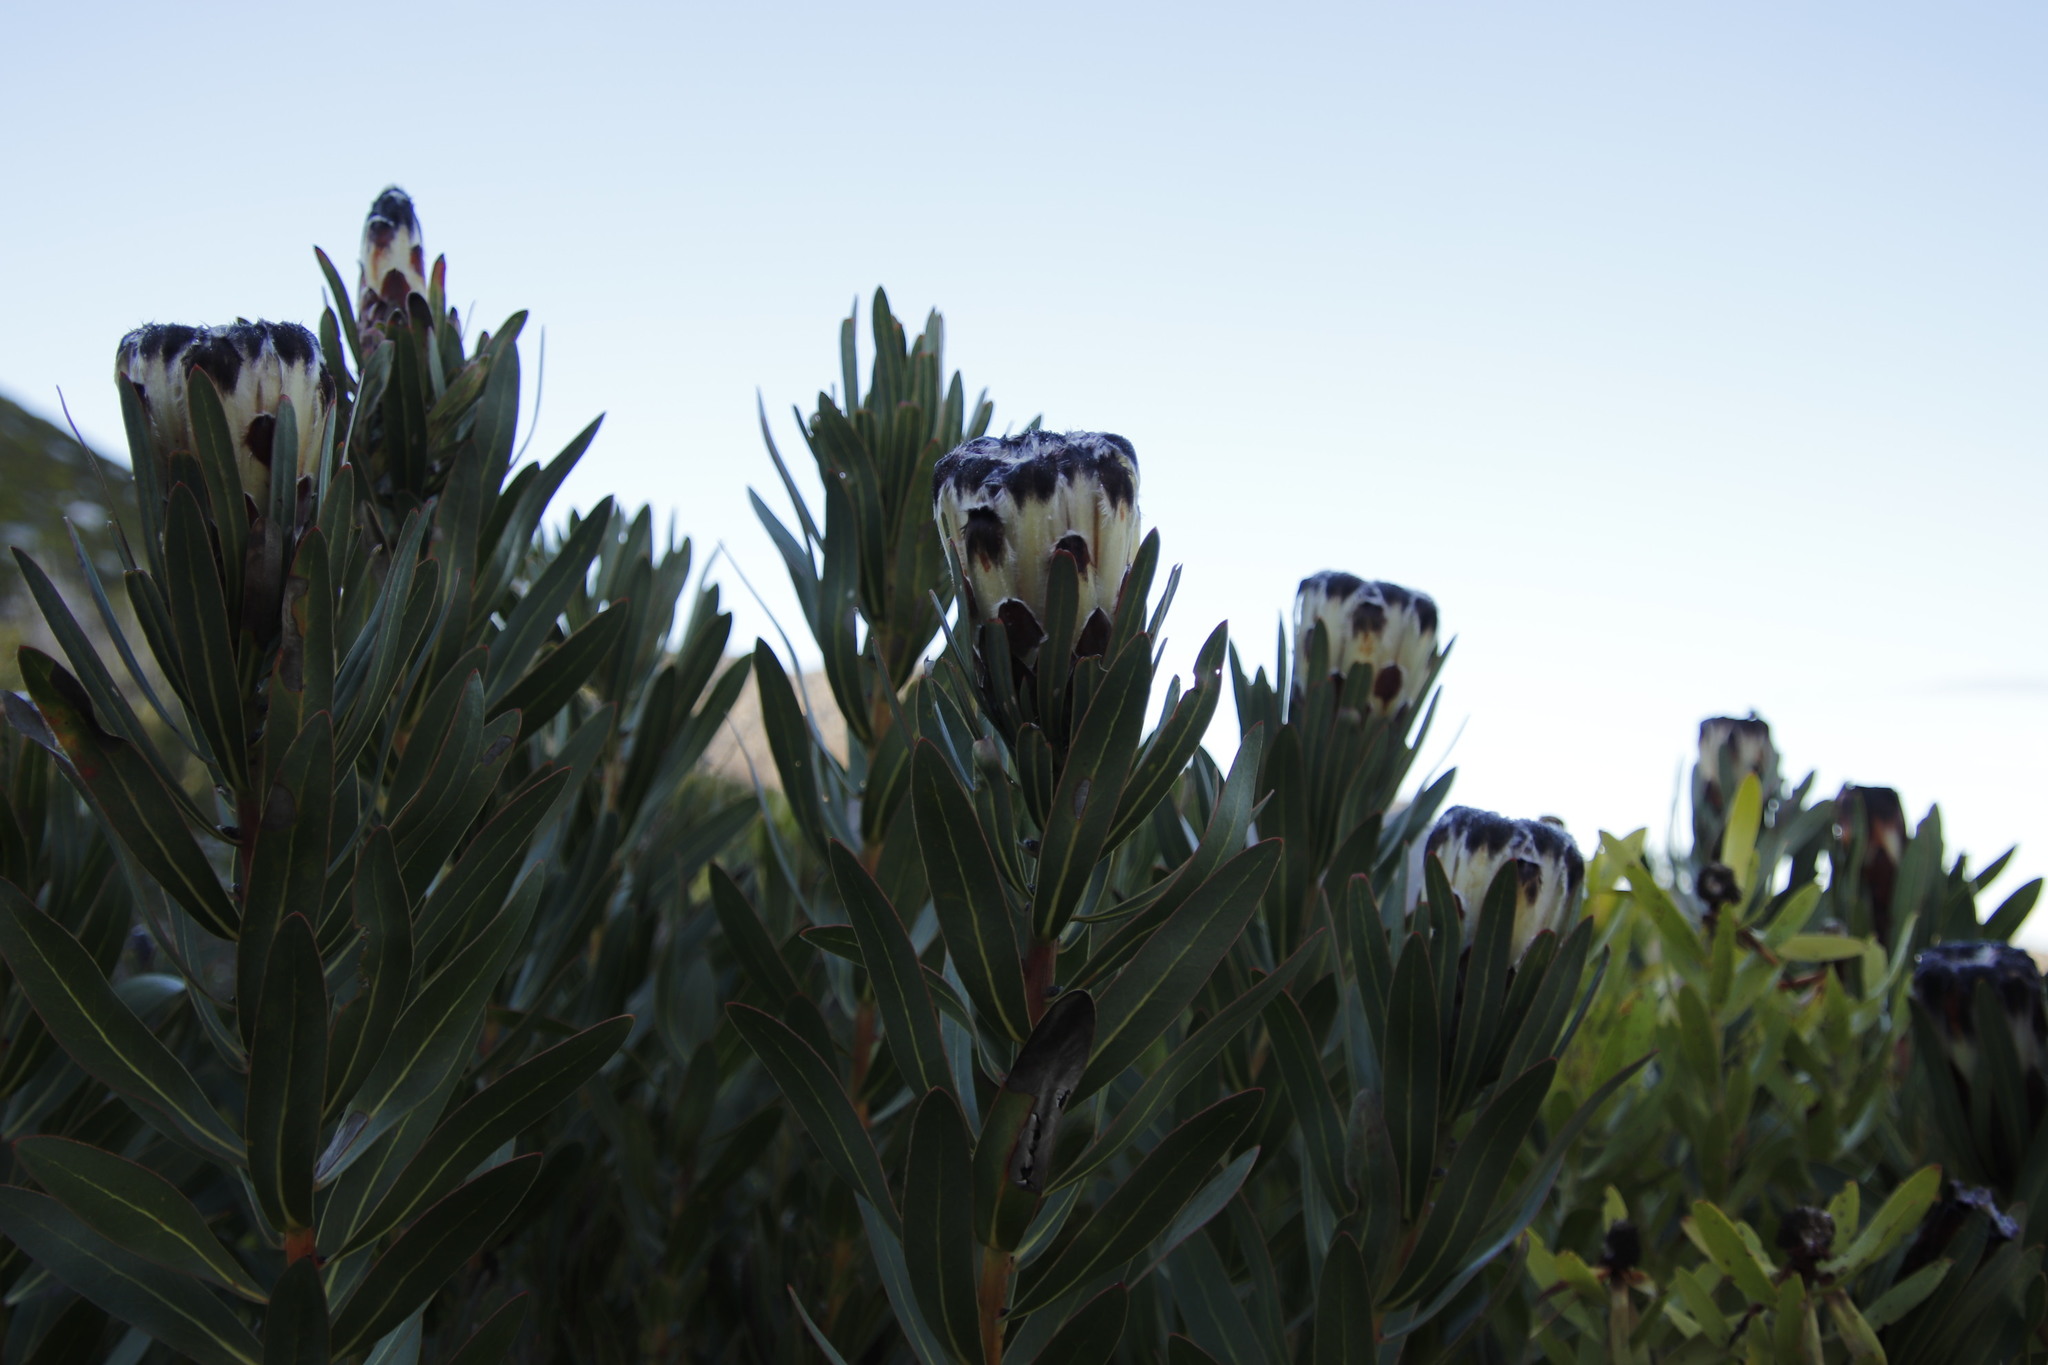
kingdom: Plantae
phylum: Tracheophyta
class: Magnoliopsida
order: Proteales
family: Proteaceae
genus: Protea
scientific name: Protea lepidocarpodendron
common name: Black-bearded protea
